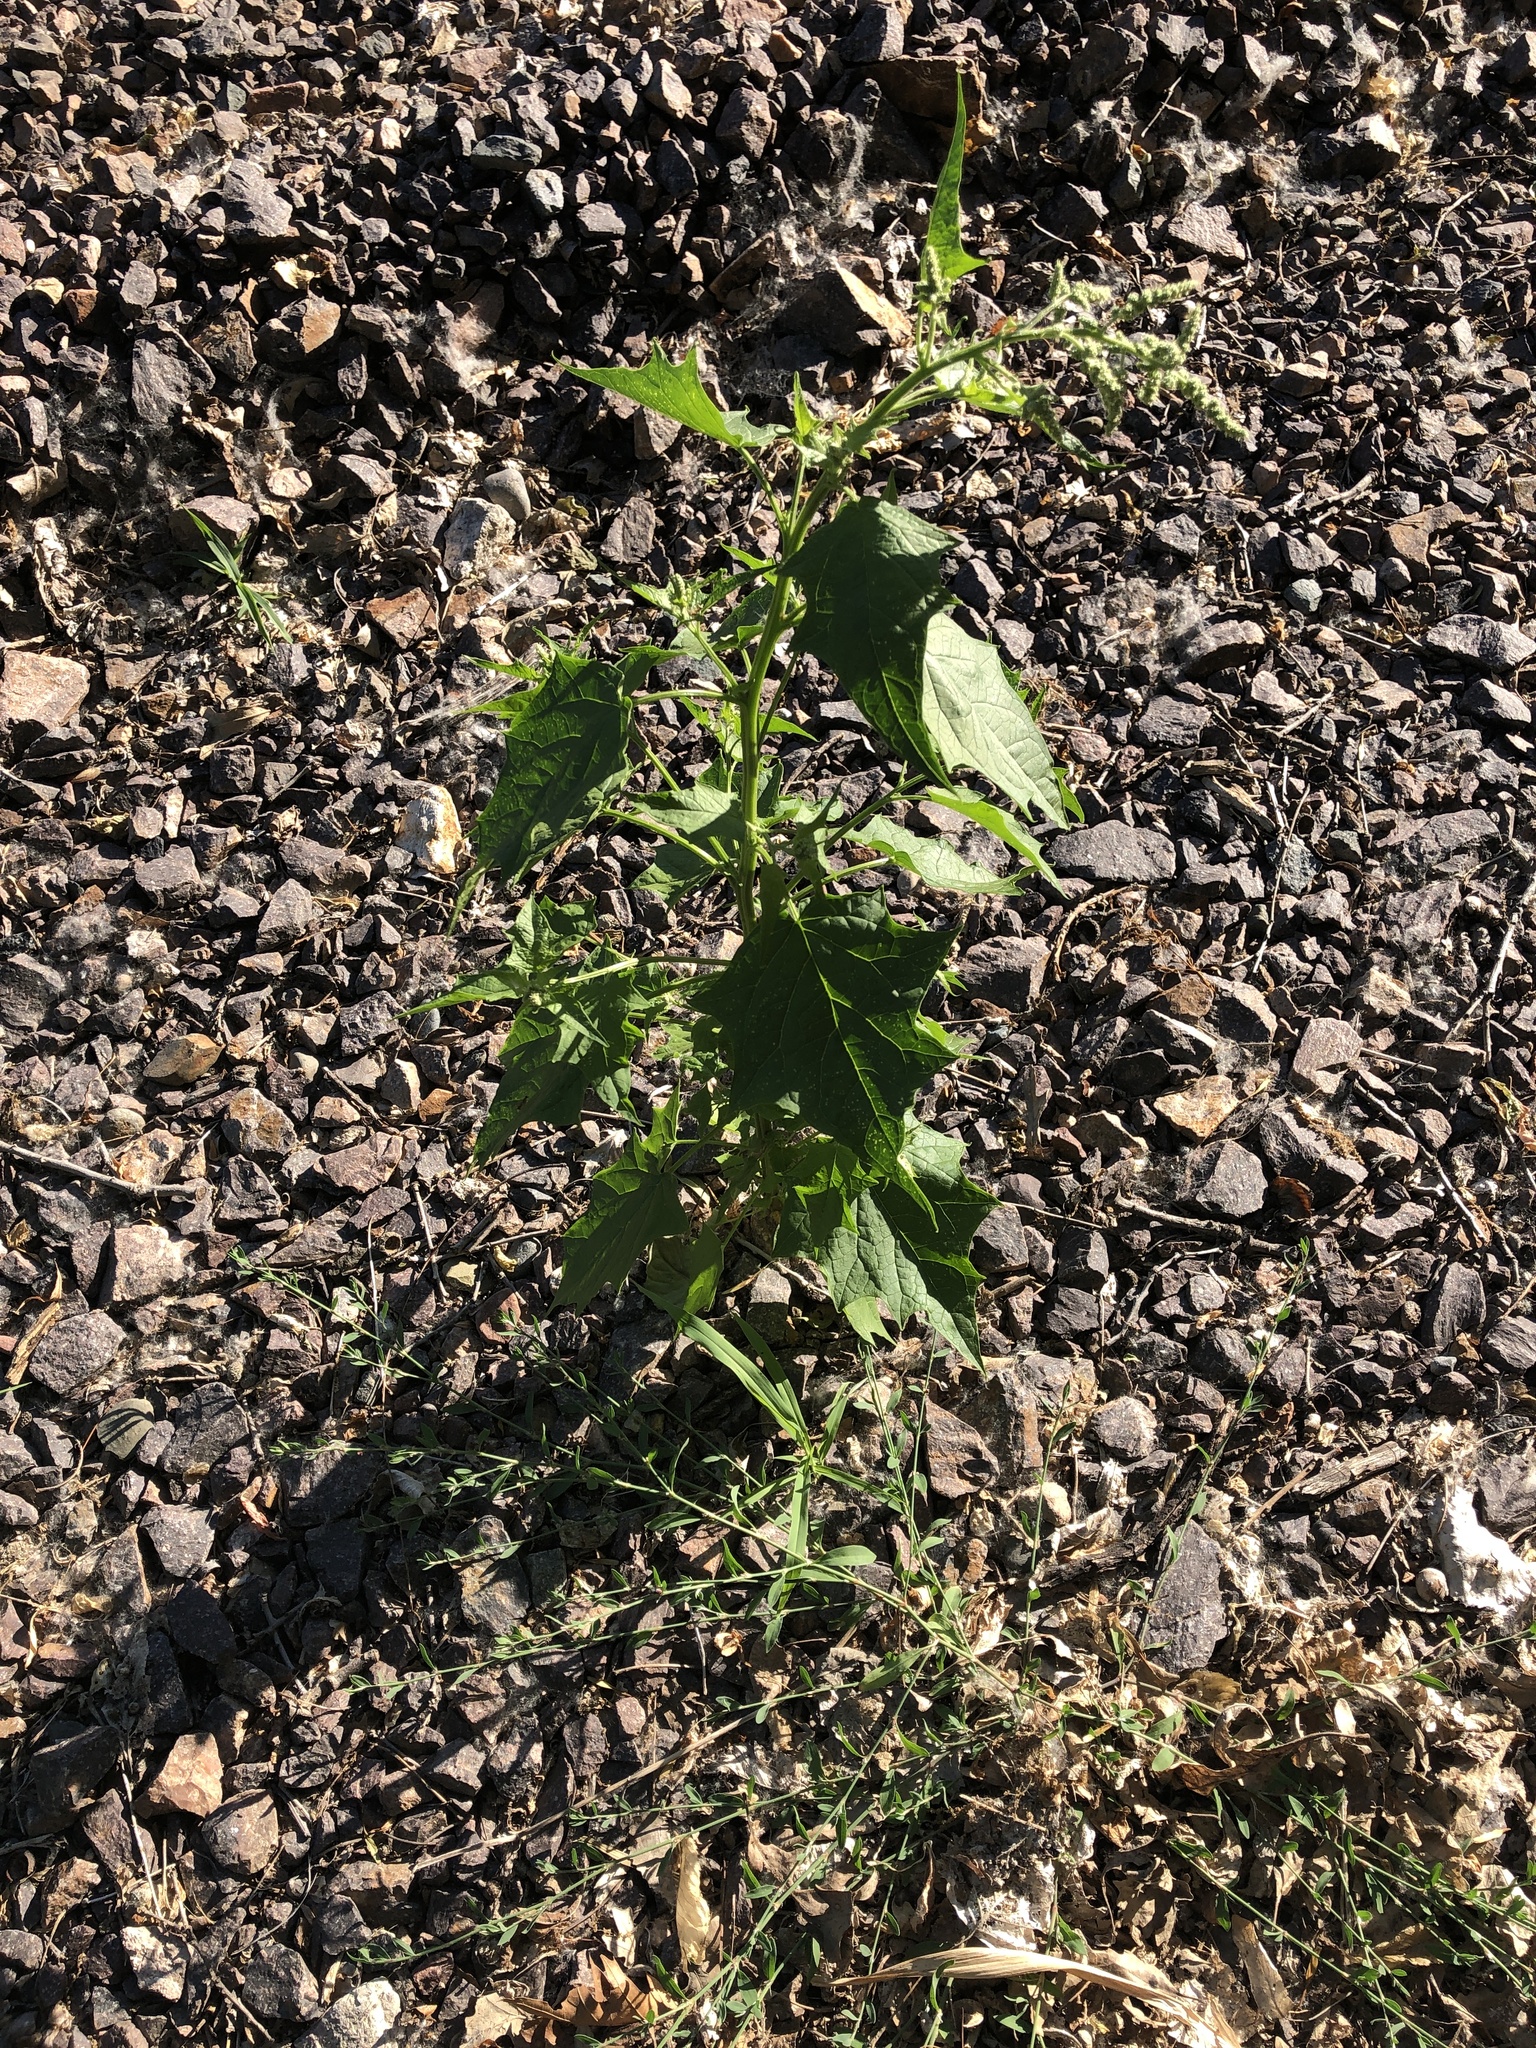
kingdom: Plantae
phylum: Tracheophyta
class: Magnoliopsida
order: Caryophyllales
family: Amaranthaceae
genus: Chenopodiastrum
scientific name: Chenopodiastrum hybridum
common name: Mapleleaf goosefoot
